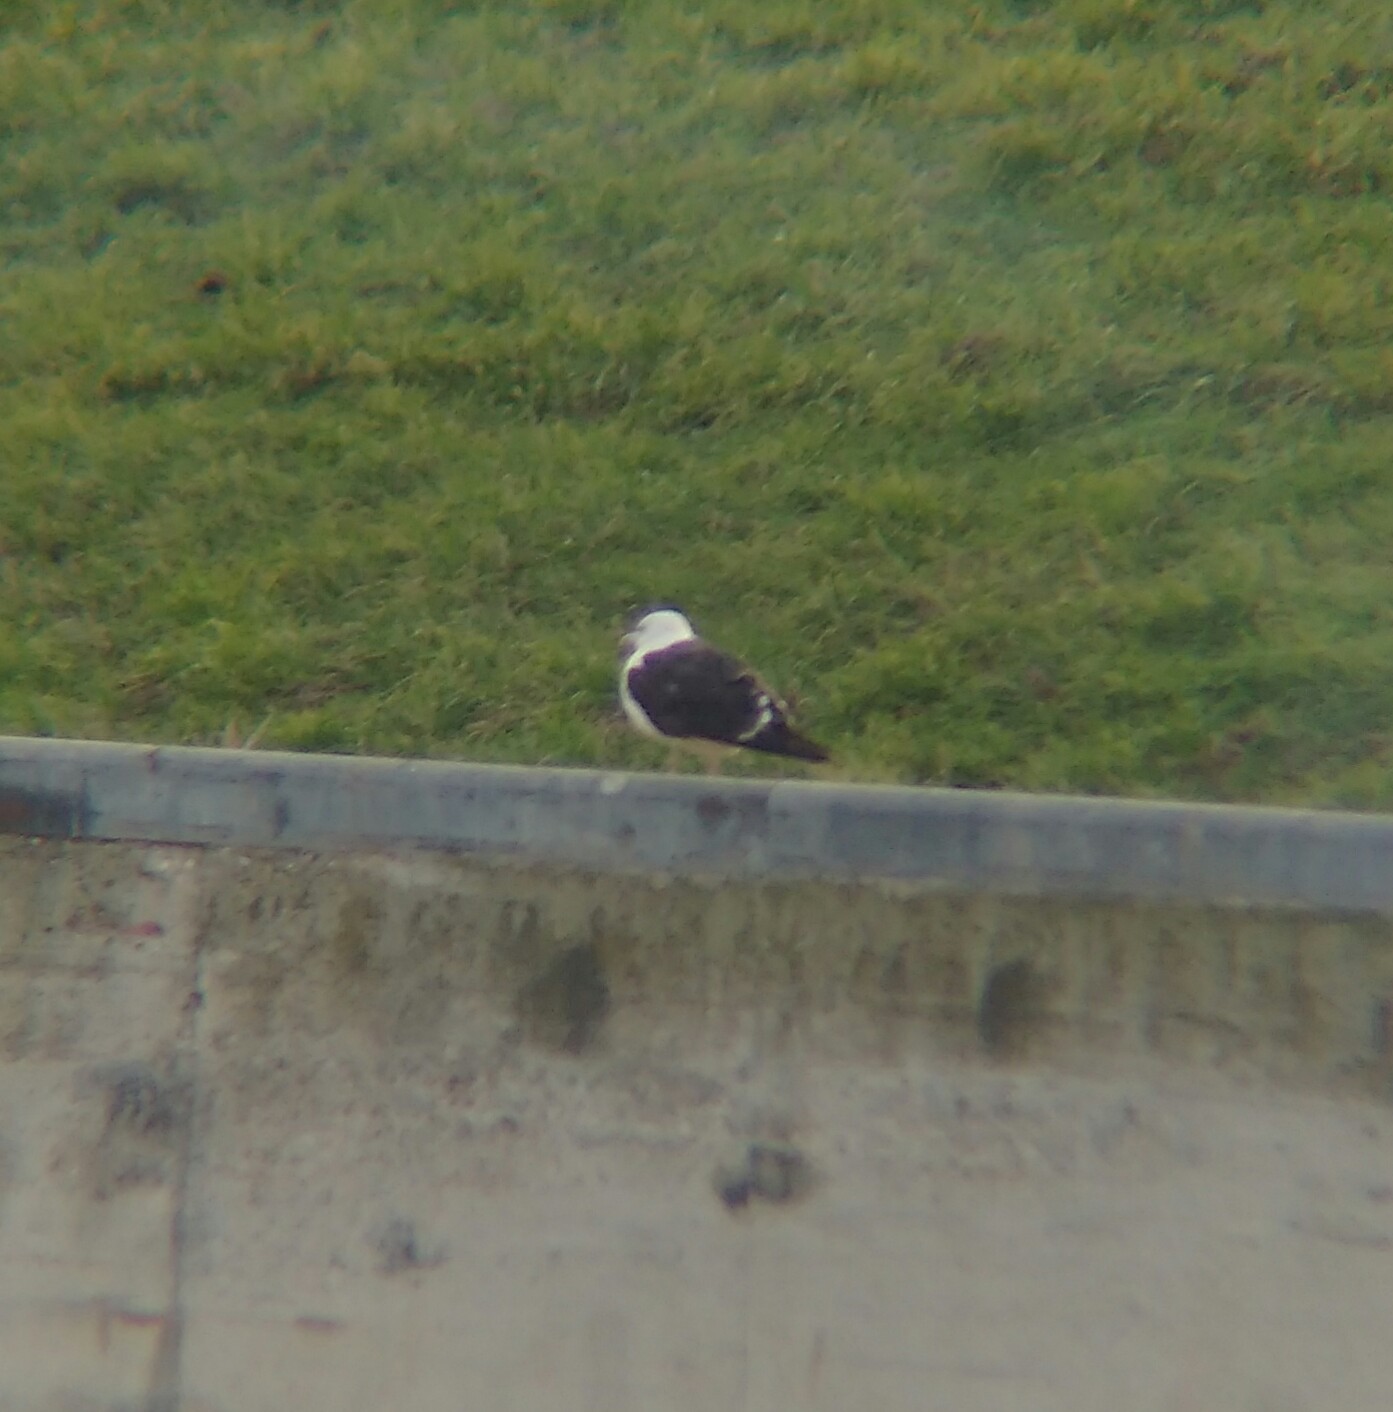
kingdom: Animalia
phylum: Chordata
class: Aves
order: Charadriiformes
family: Laridae
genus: Larus
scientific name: Larus fuscus
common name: Lesser black-backed gull
